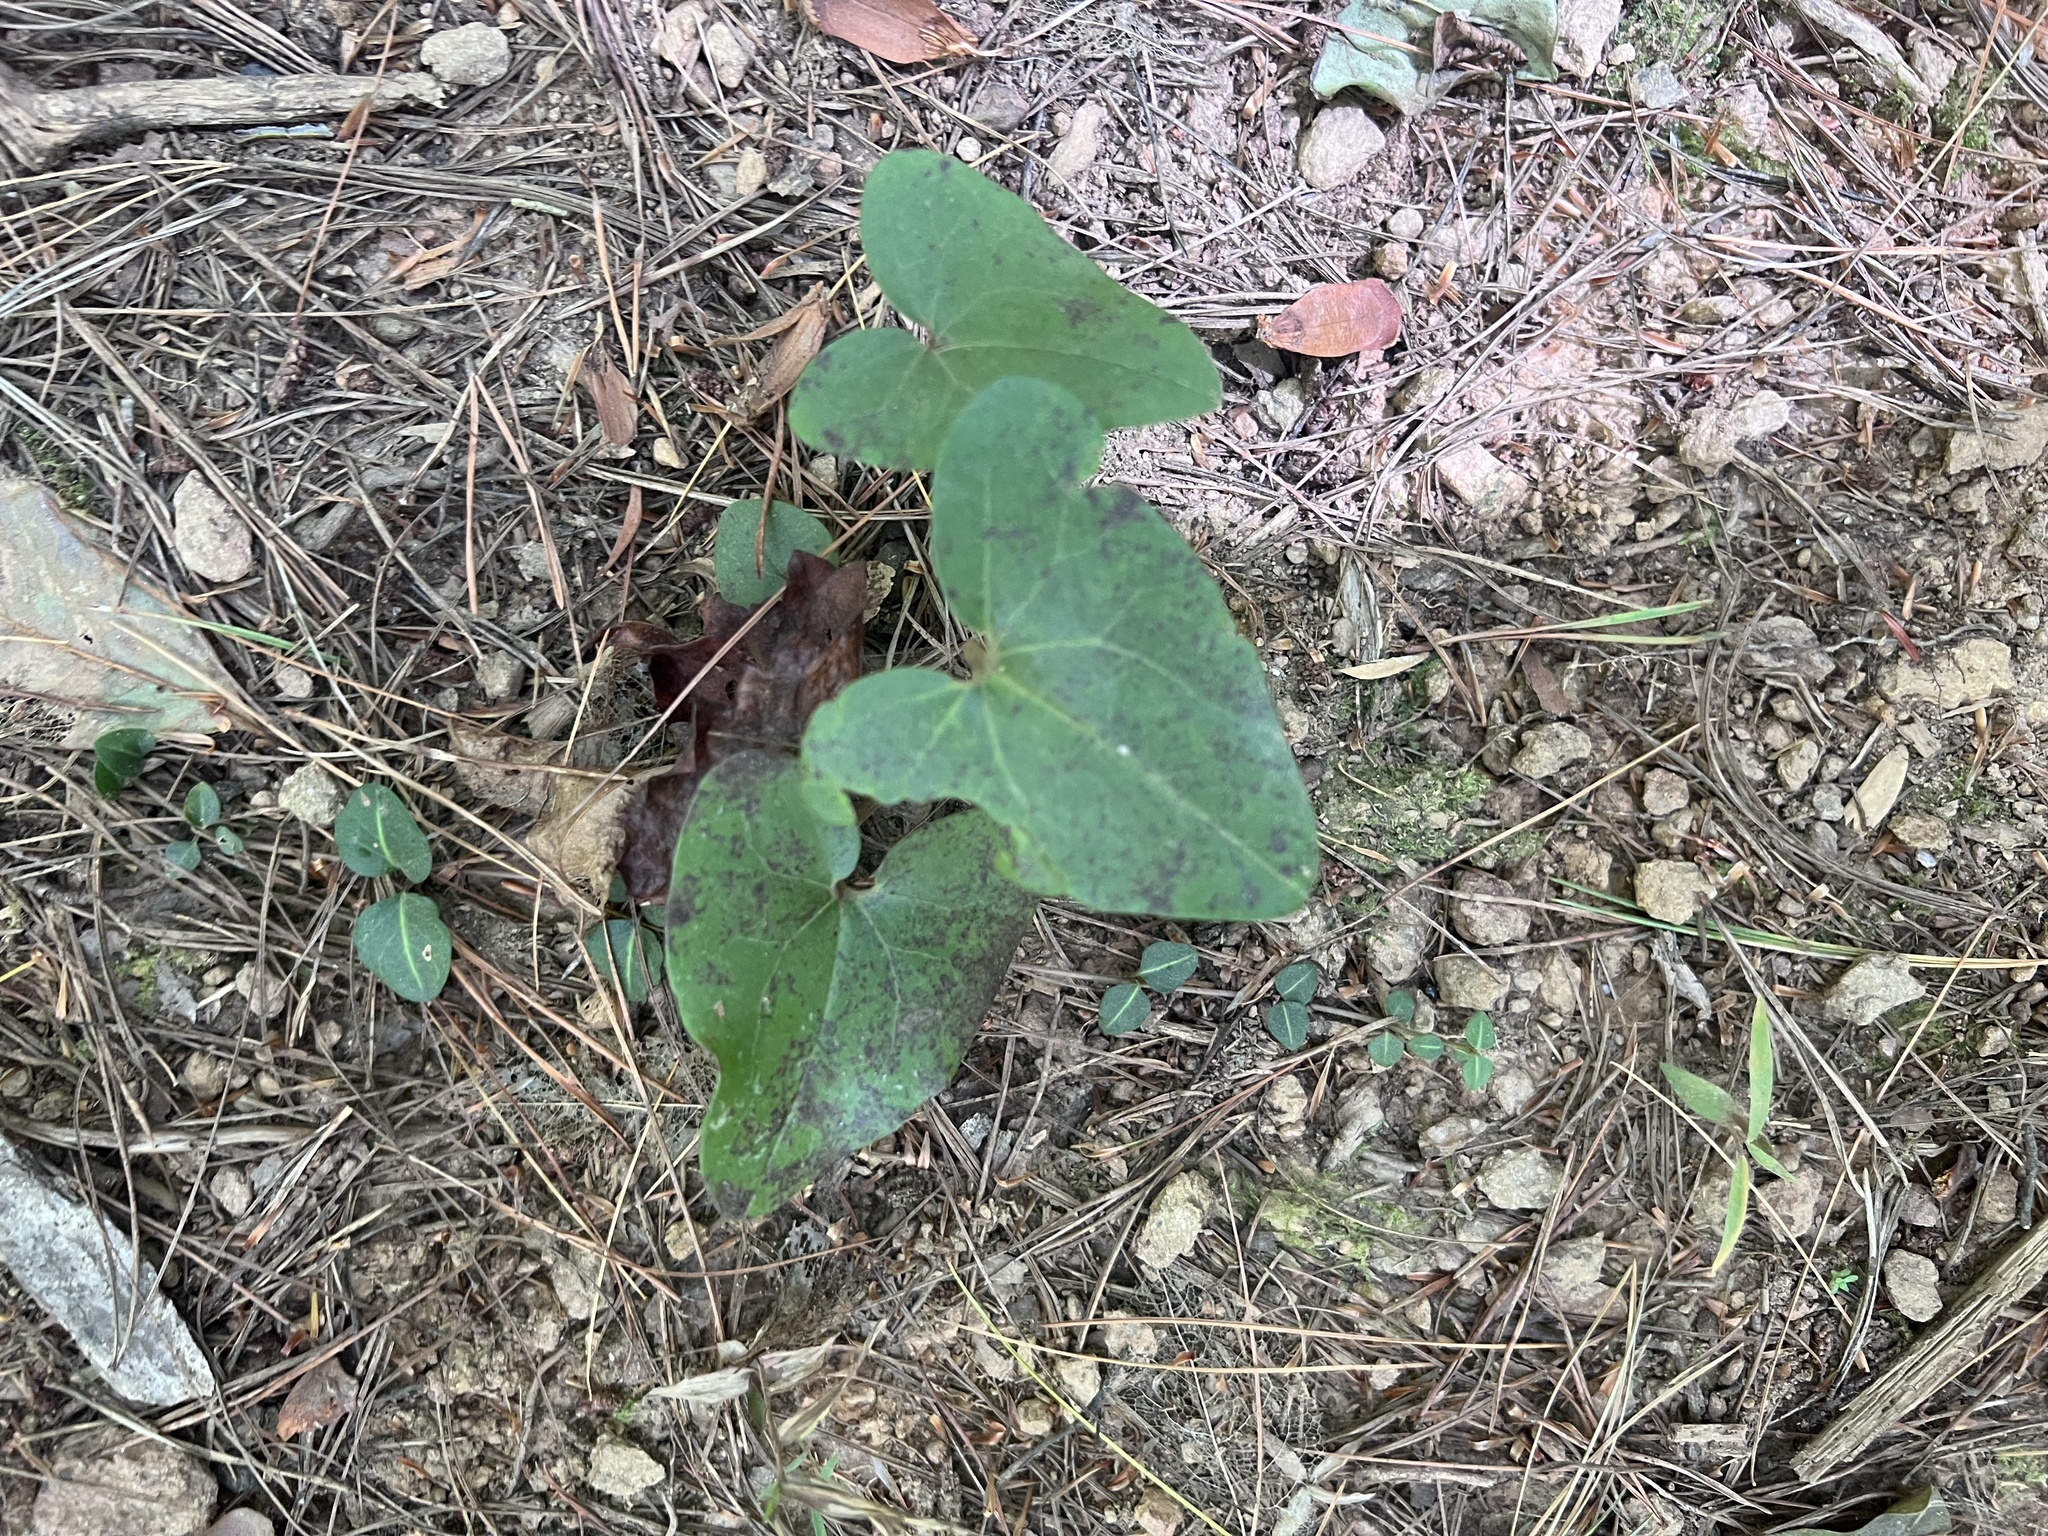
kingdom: Plantae
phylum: Tracheophyta
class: Magnoliopsida
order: Piperales
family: Aristolochiaceae
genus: Hexastylis
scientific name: Hexastylis arifolia
